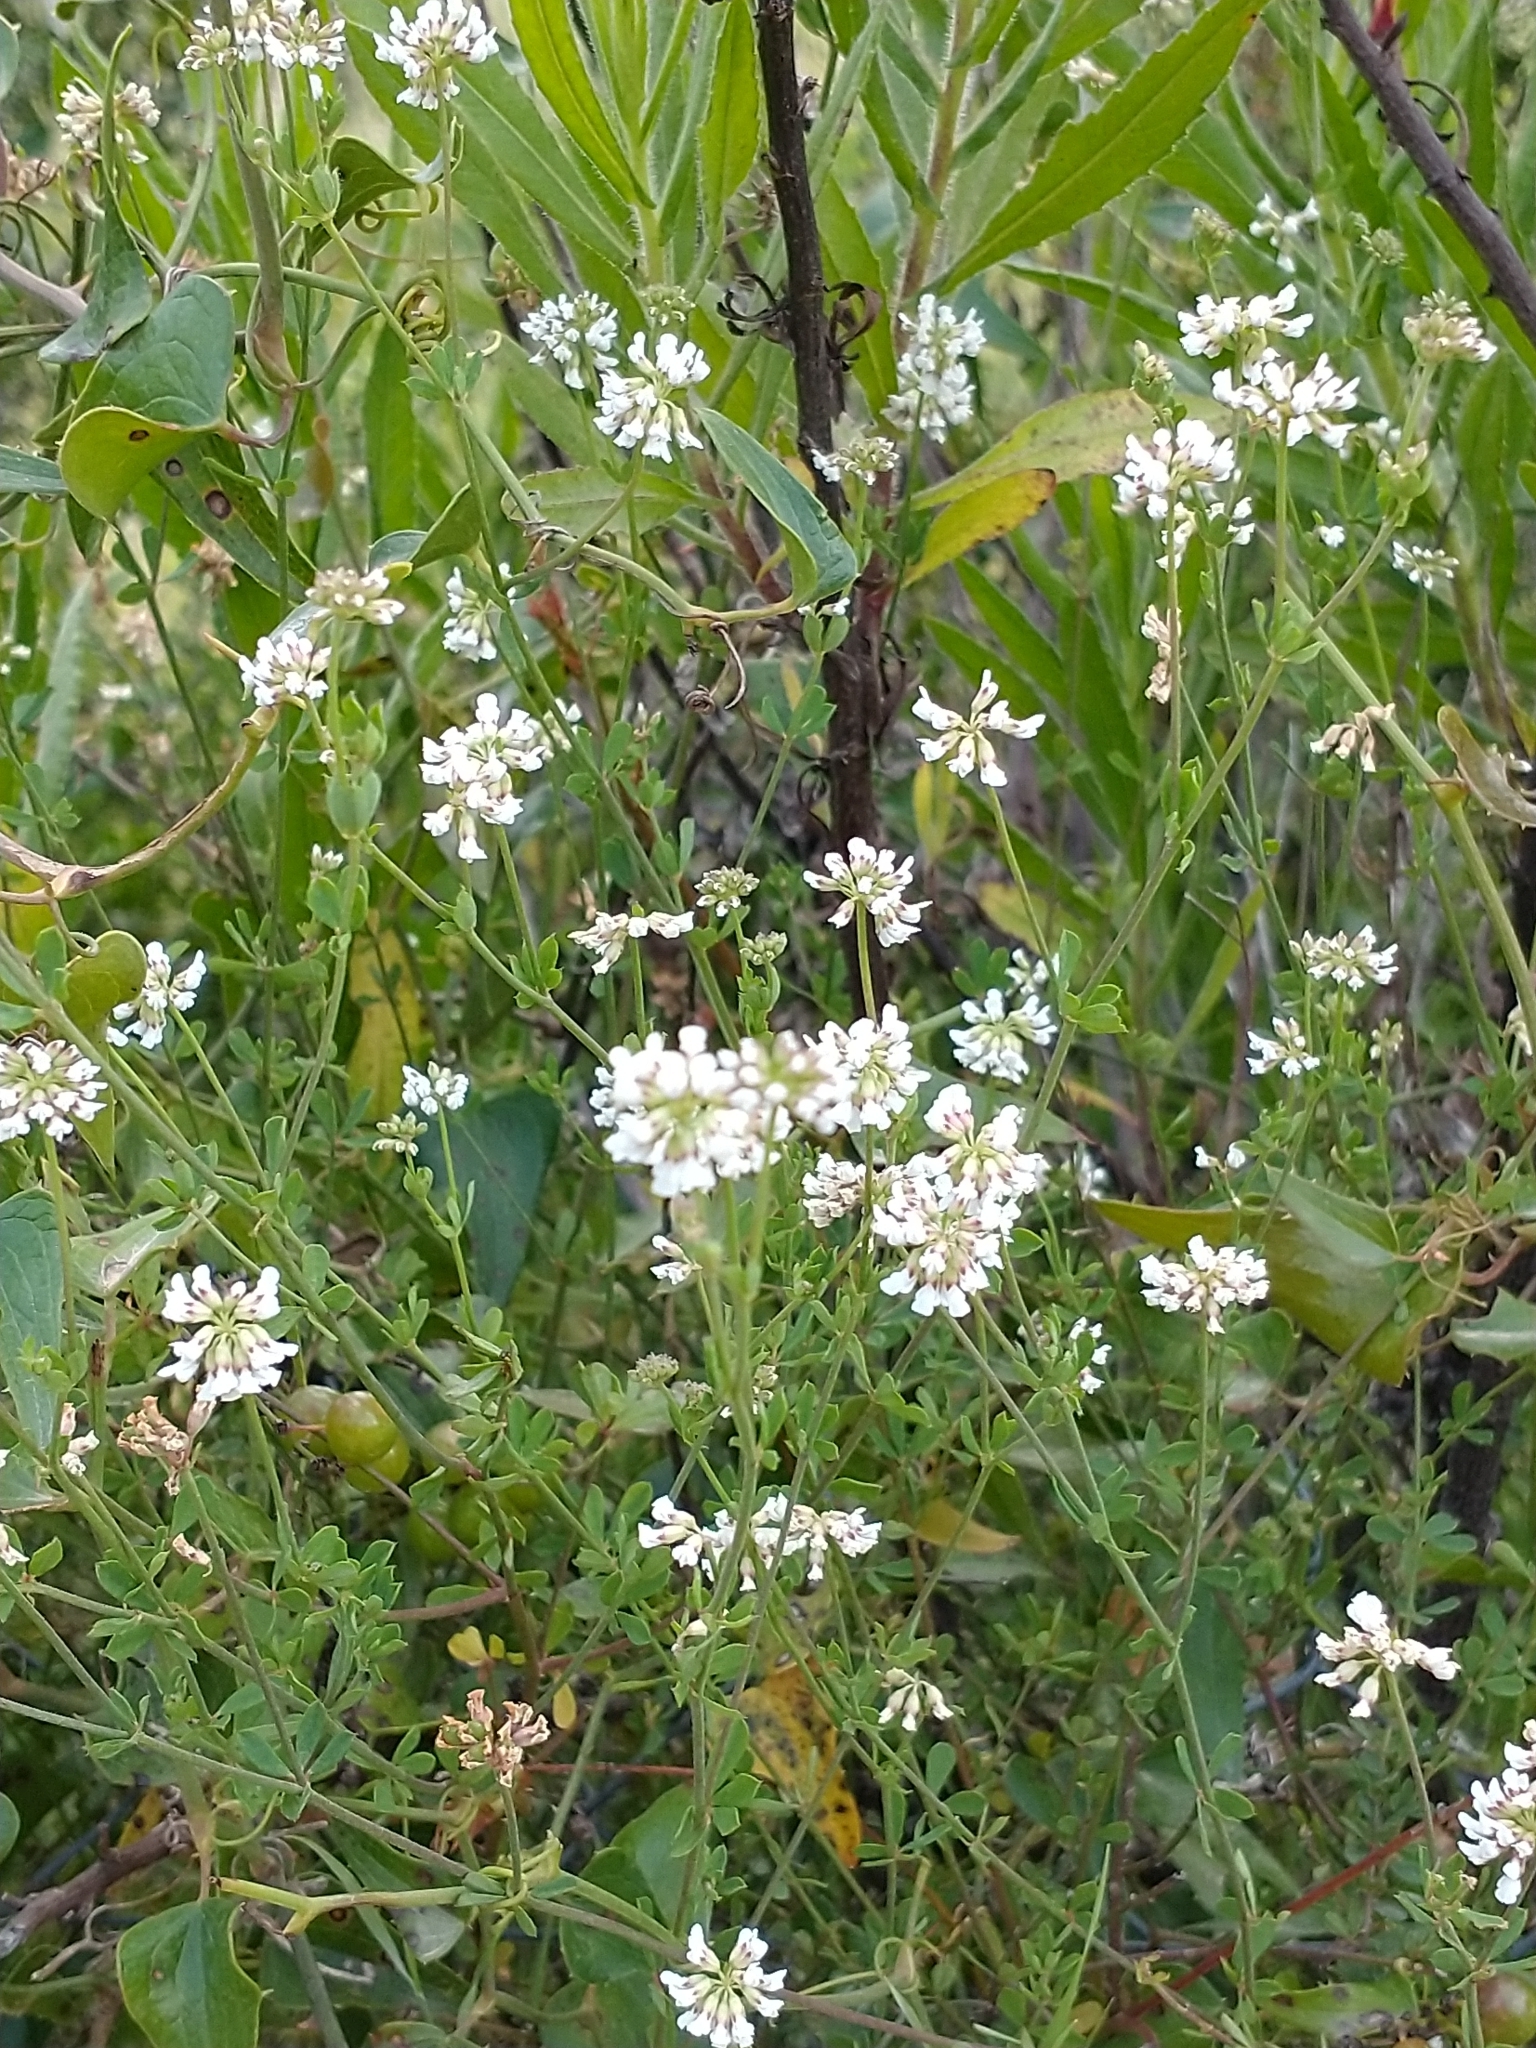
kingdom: Plantae
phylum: Tracheophyta
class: Magnoliopsida
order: Fabales
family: Fabaceae
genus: Lotus
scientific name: Lotus herbaceus
